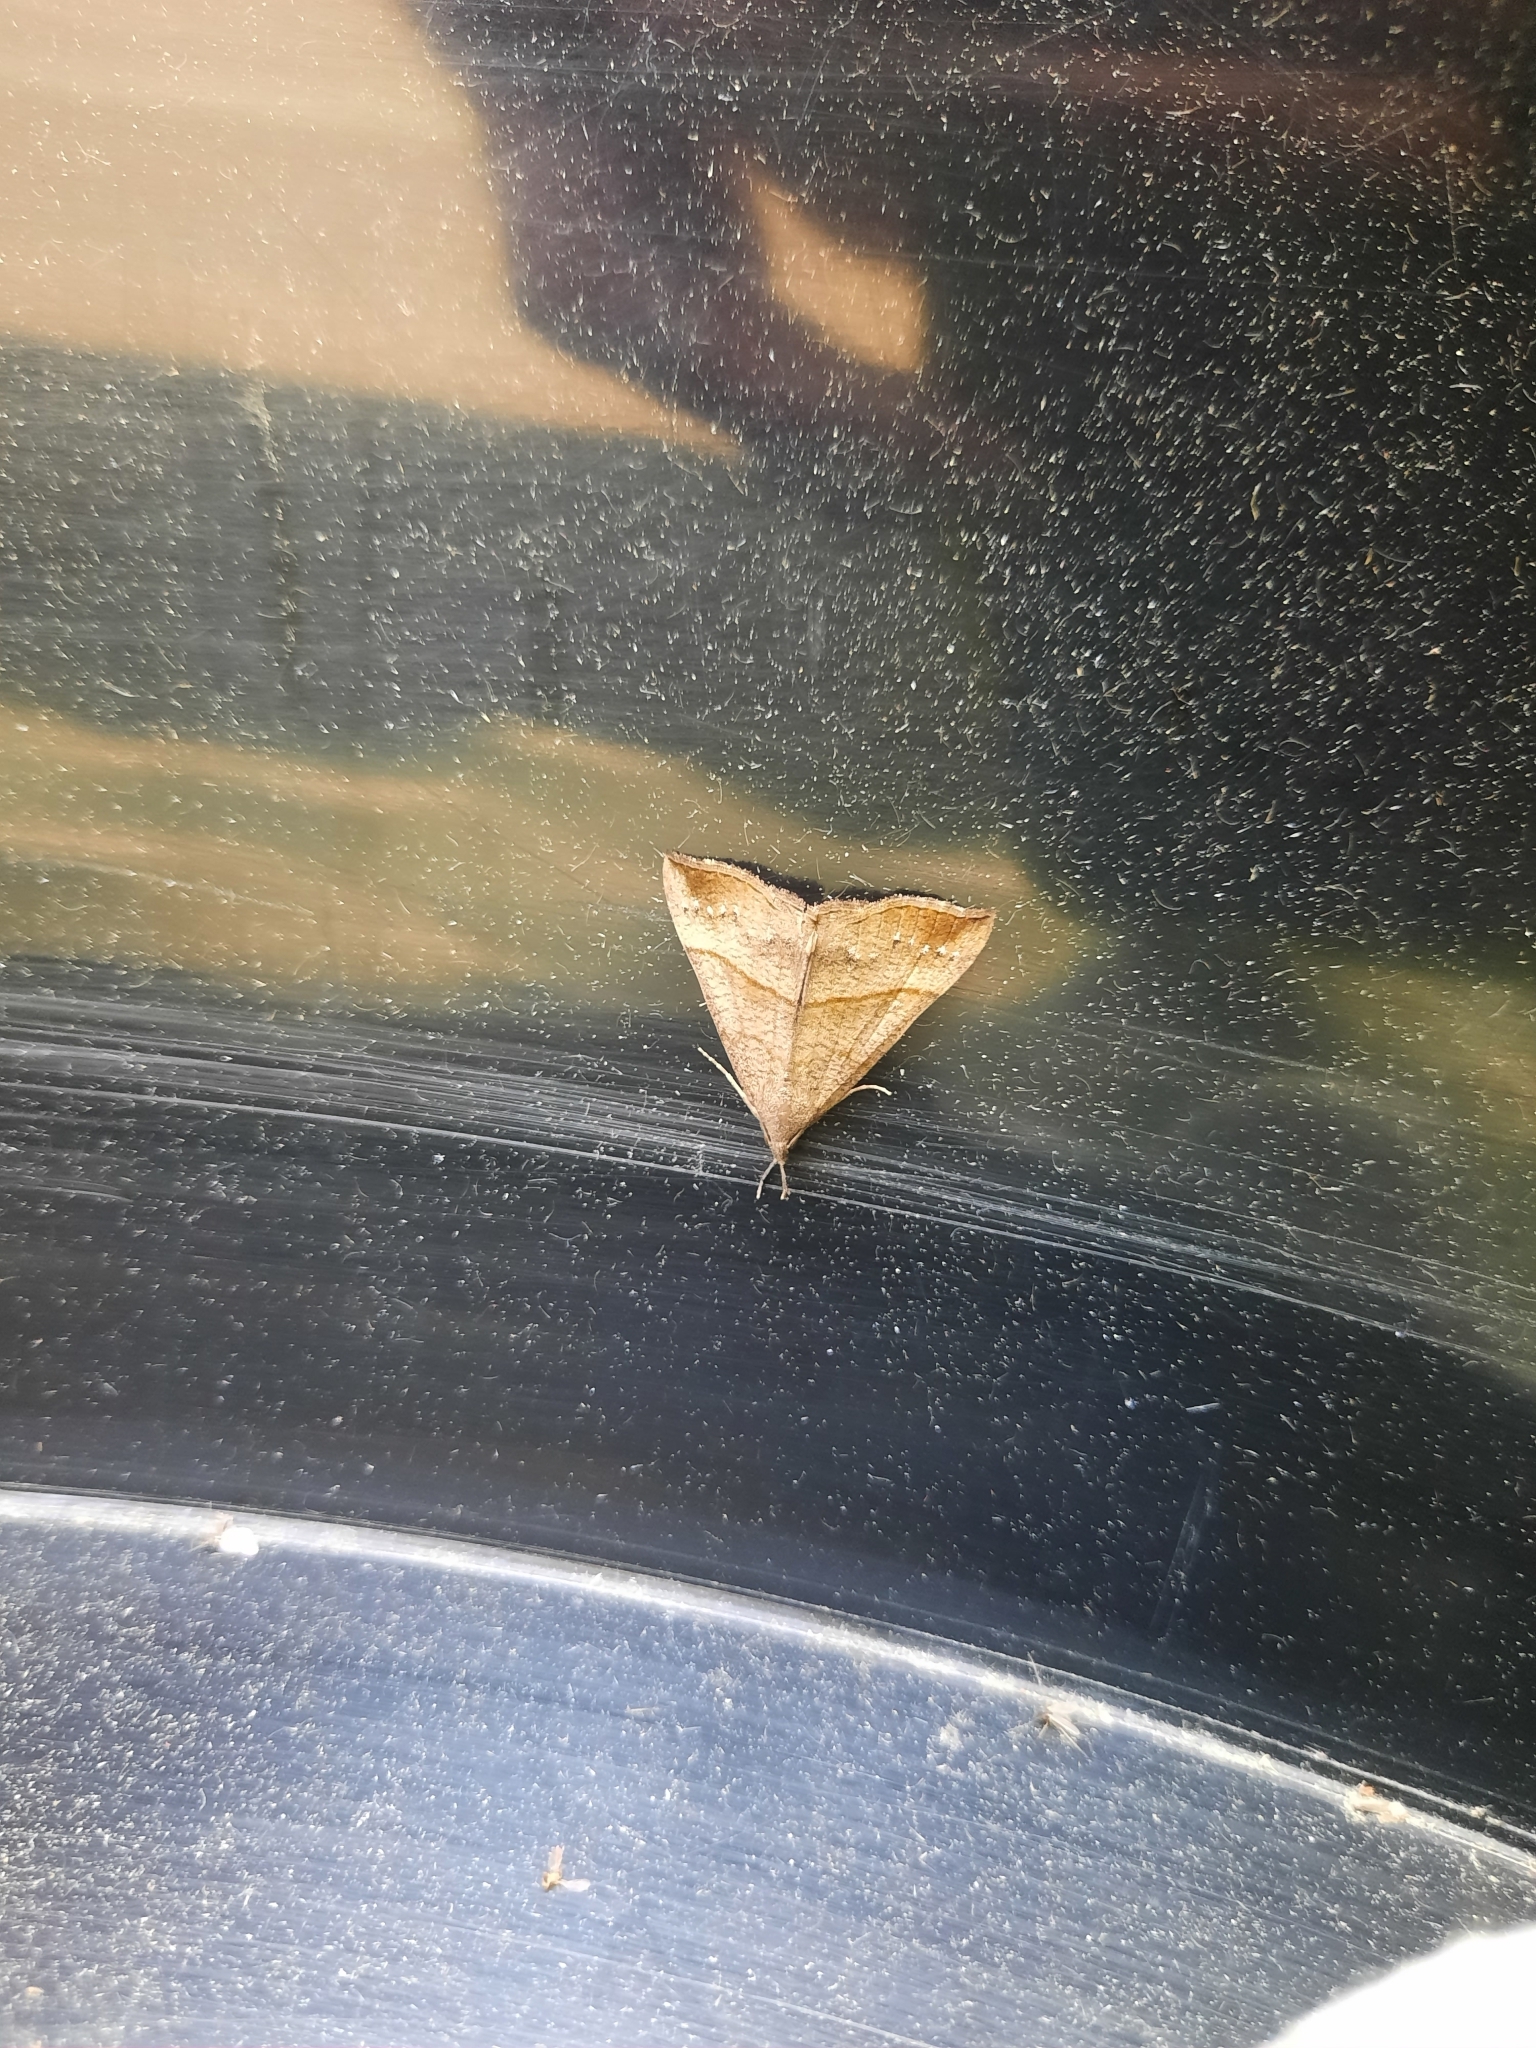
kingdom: Animalia
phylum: Arthropoda
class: Insecta
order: Lepidoptera
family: Erebidae
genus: Hypena
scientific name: Hypena proboscidalis
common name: Snout
